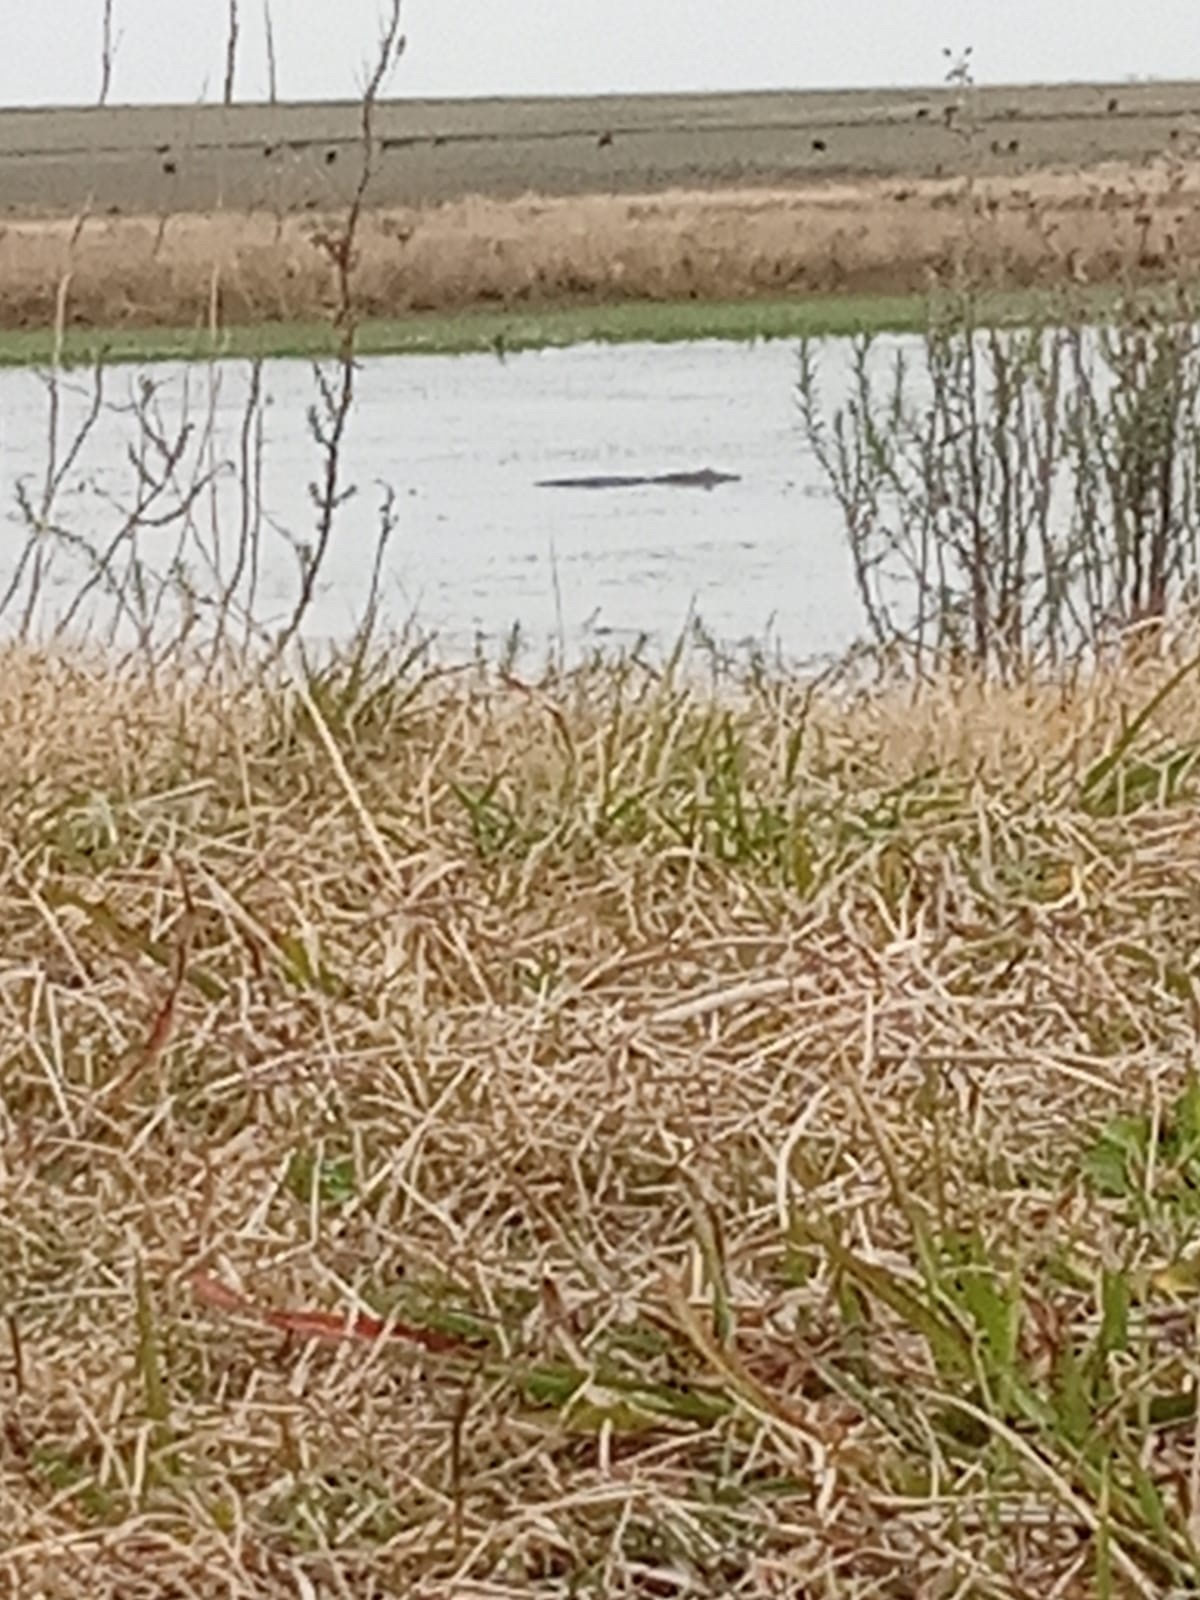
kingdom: Animalia
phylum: Chordata
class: Crocodylia
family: Alligatoridae
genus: Caiman
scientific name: Caiman latirostris
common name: Broad-snouted caiman
